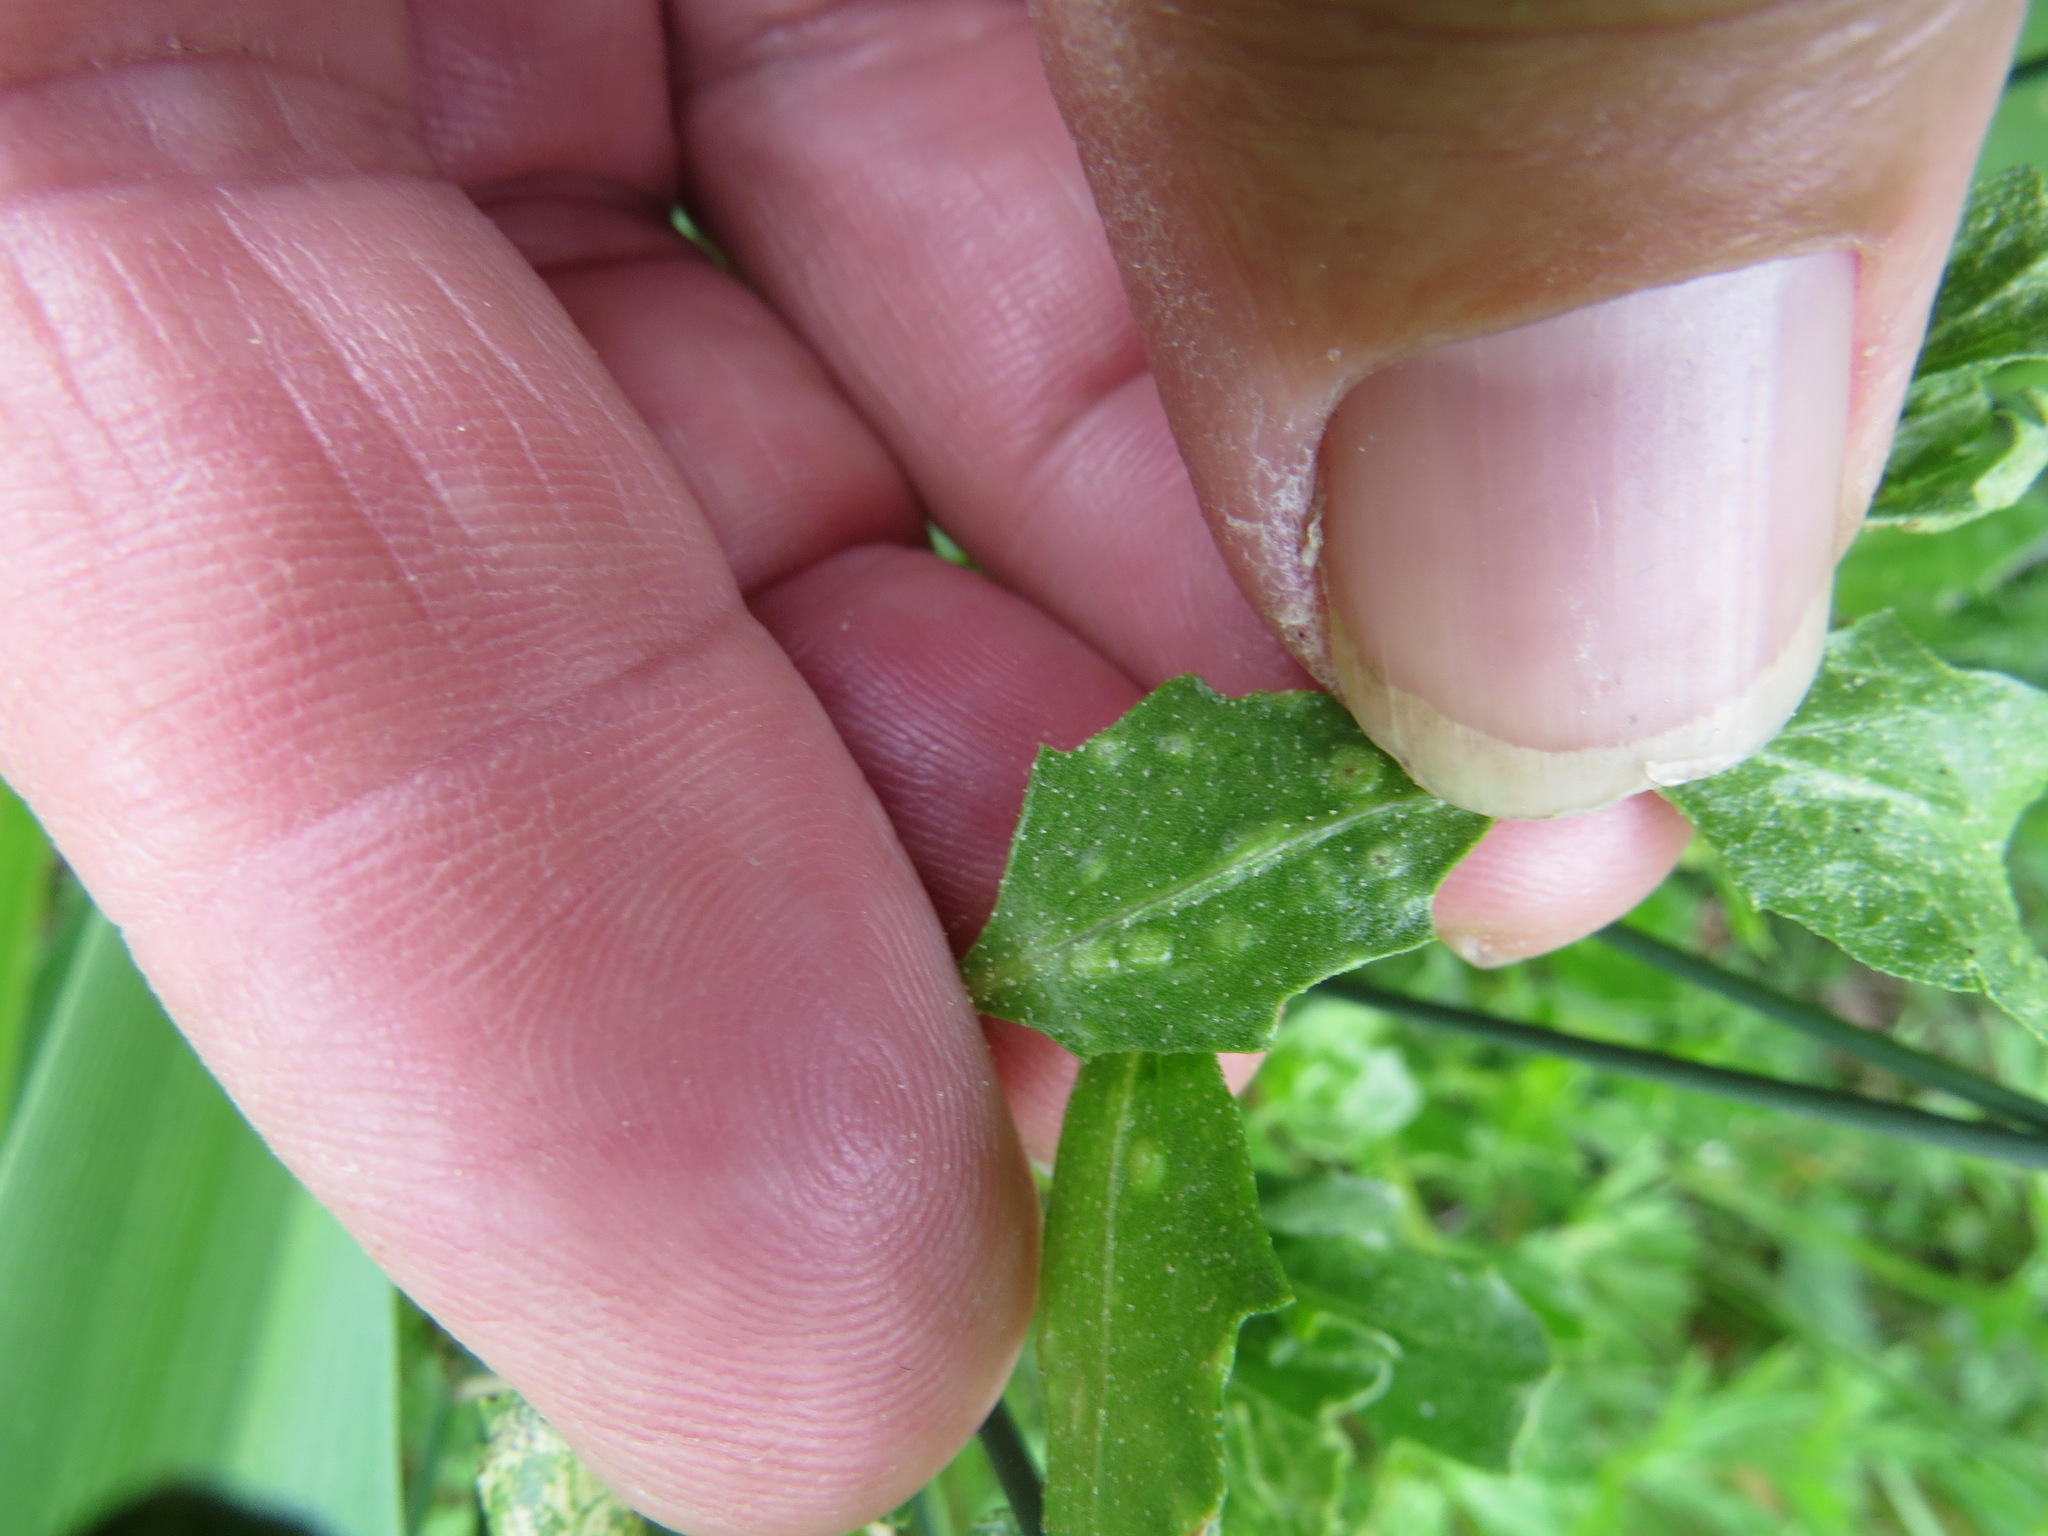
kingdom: Animalia
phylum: Arthropoda
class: Arachnida
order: Trombidiformes
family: Eriophyidae
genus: Aceria
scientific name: Aceria
